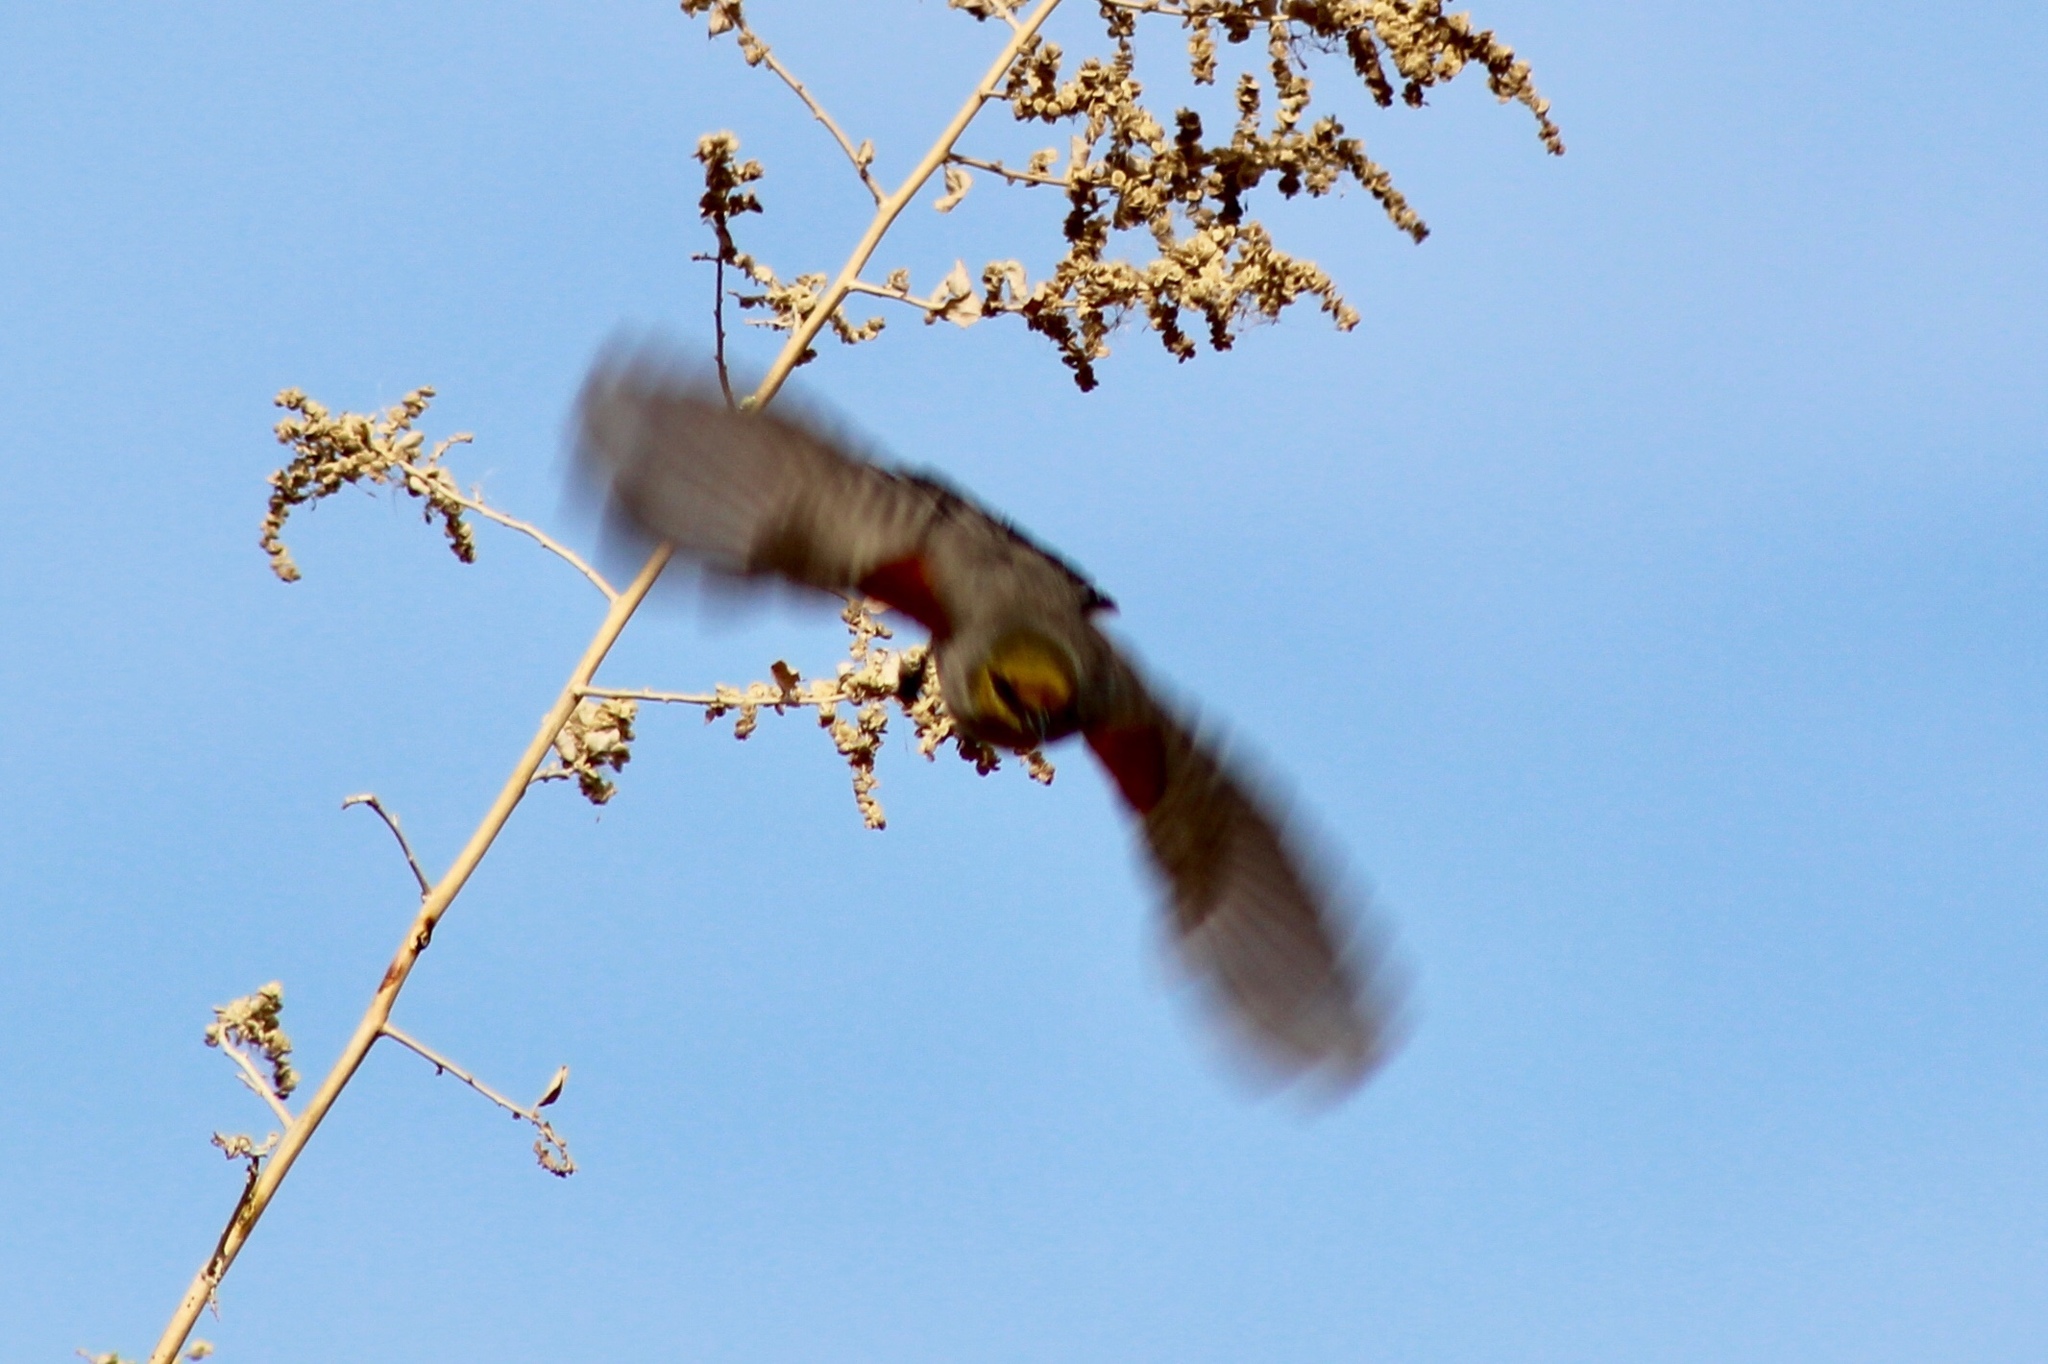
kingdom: Animalia
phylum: Chordata
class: Aves
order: Passeriformes
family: Remizidae
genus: Auriparus
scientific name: Auriparus flaviceps
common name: Verdin
